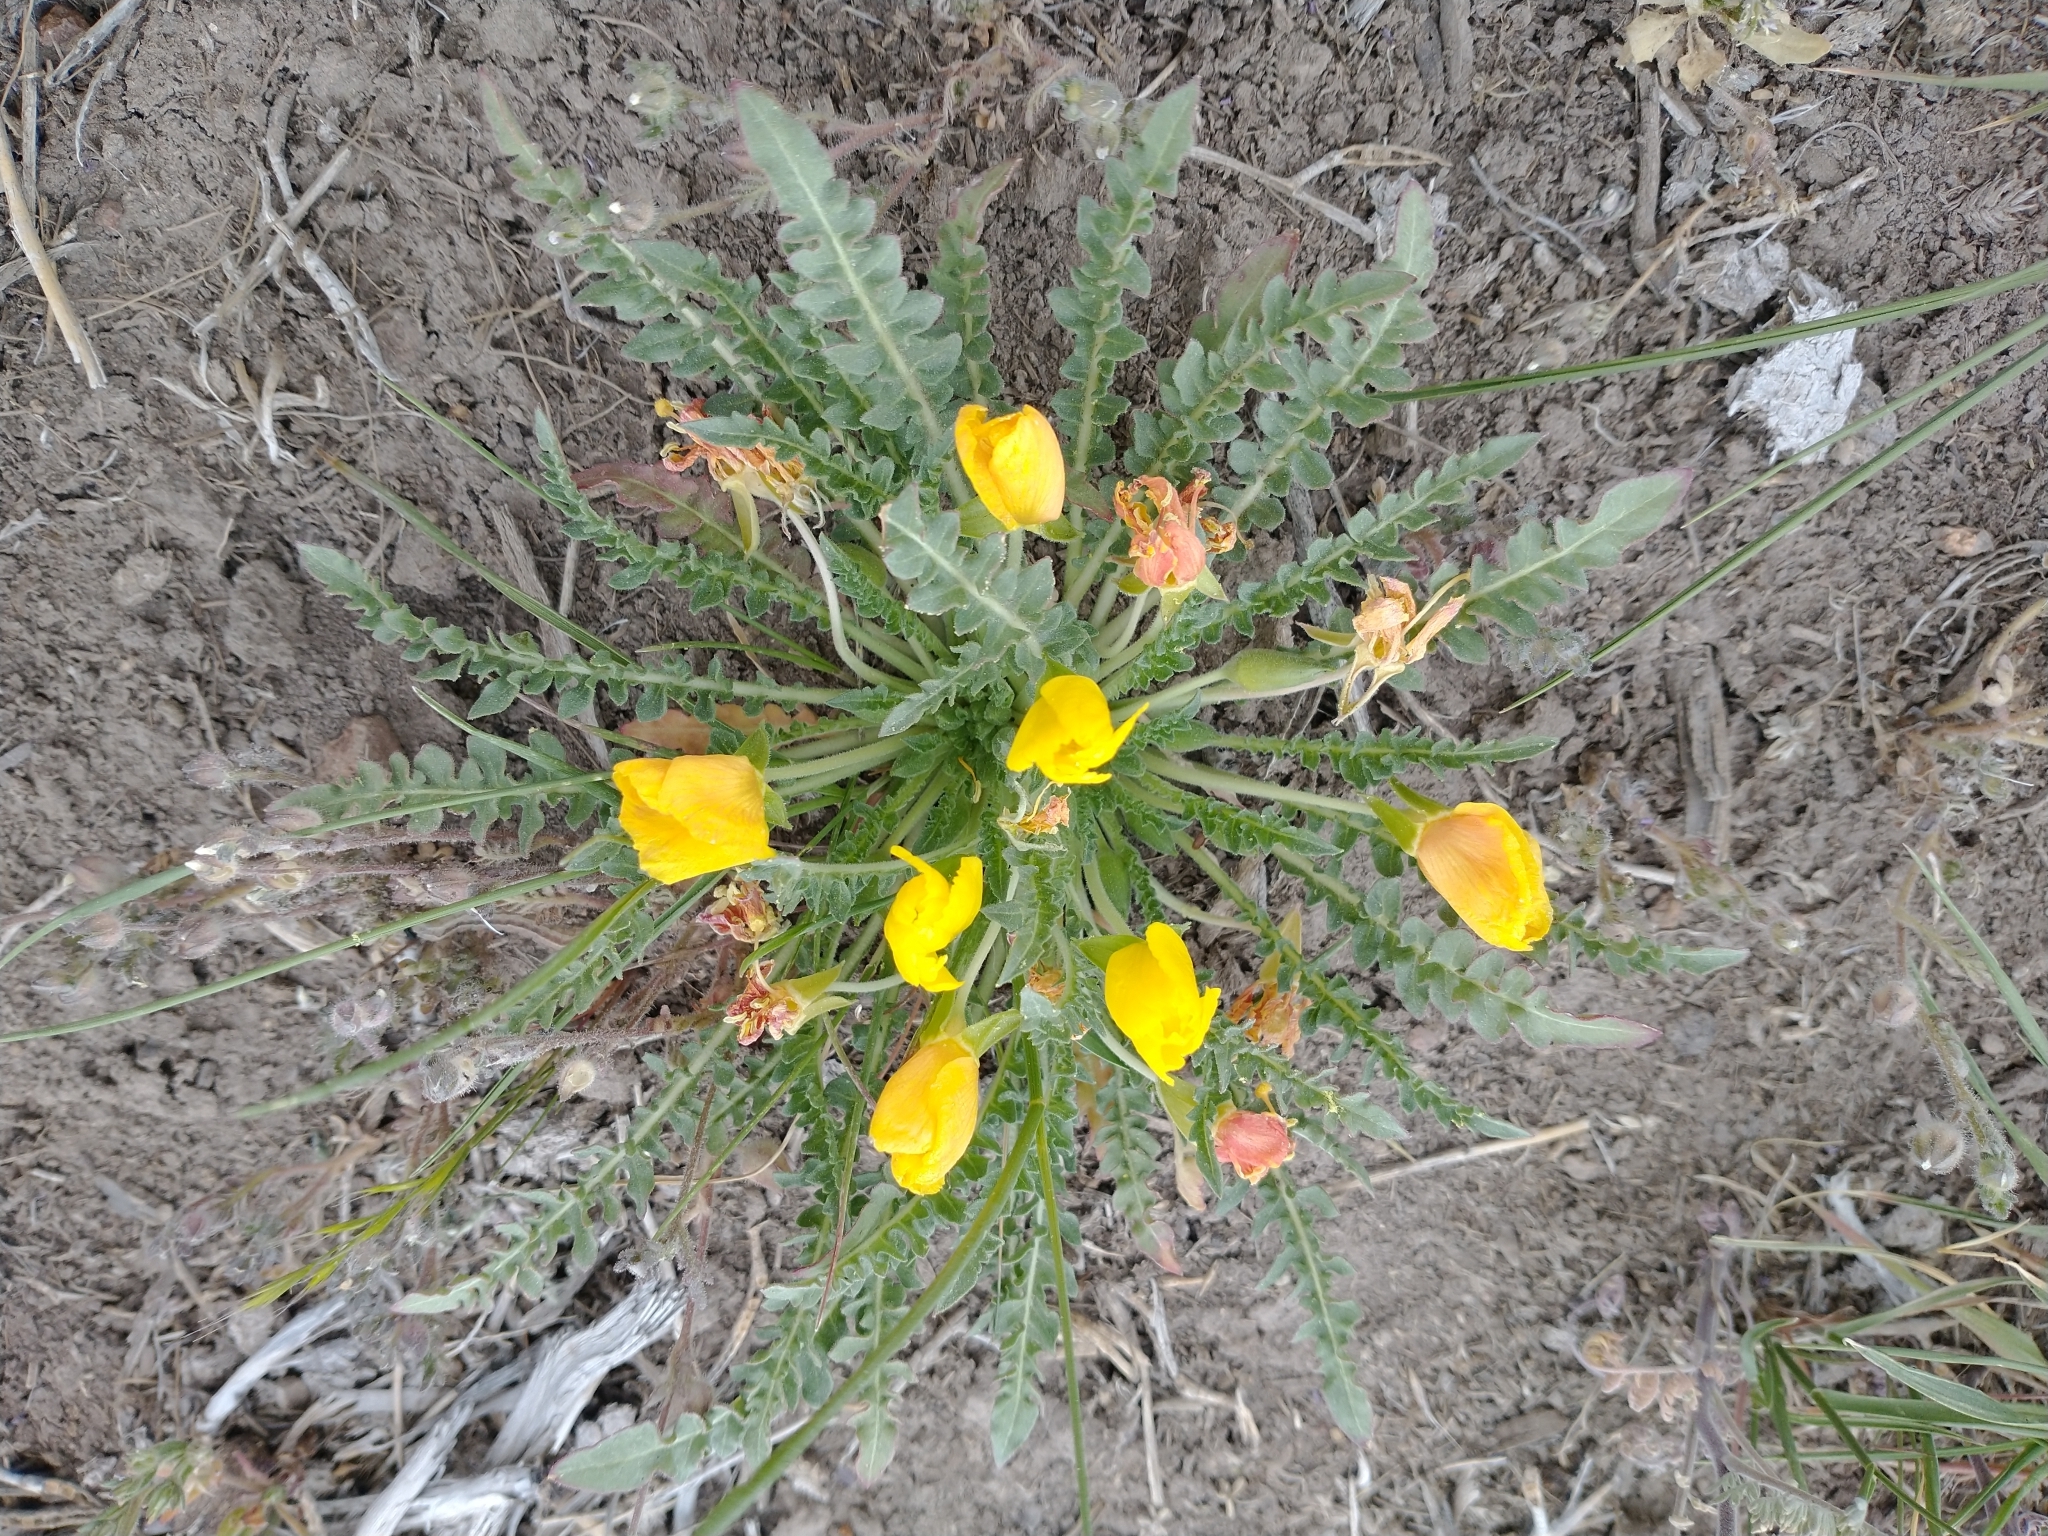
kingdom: Plantae
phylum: Tracheophyta
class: Magnoliopsida
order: Myrtales
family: Onagraceae
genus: Taraxia
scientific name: Taraxia tanacetifolia
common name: Tansyleaf evening primrose
